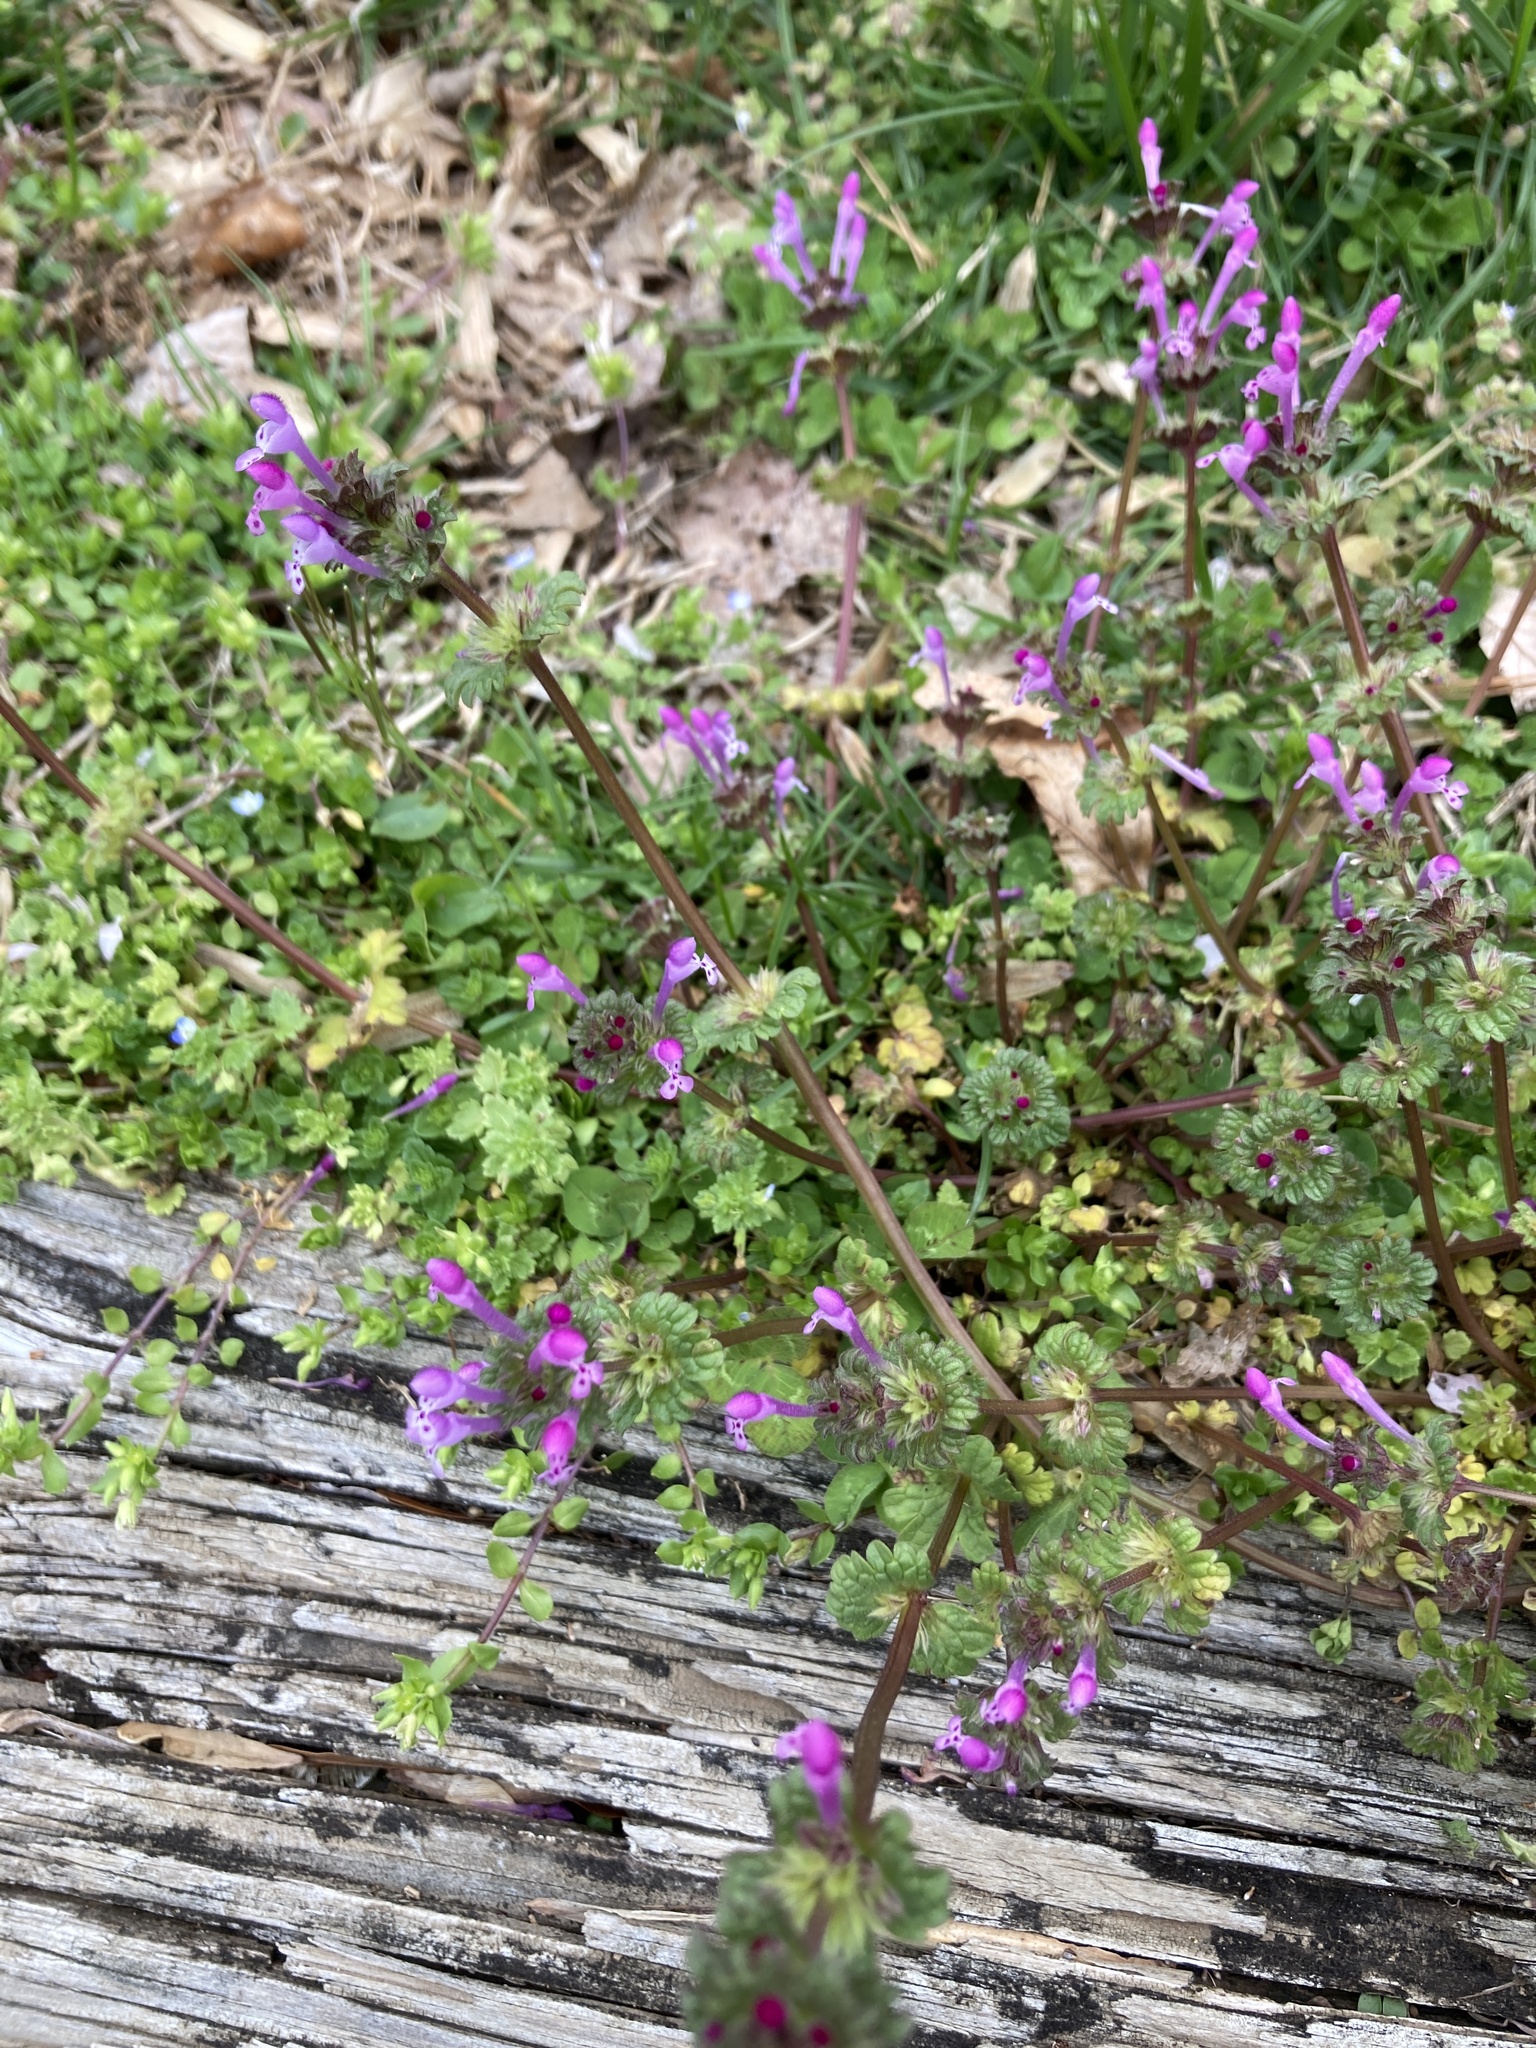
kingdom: Plantae
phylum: Tracheophyta
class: Magnoliopsida
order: Lamiales
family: Lamiaceae
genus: Lamium
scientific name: Lamium amplexicaule
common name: Henbit dead-nettle
